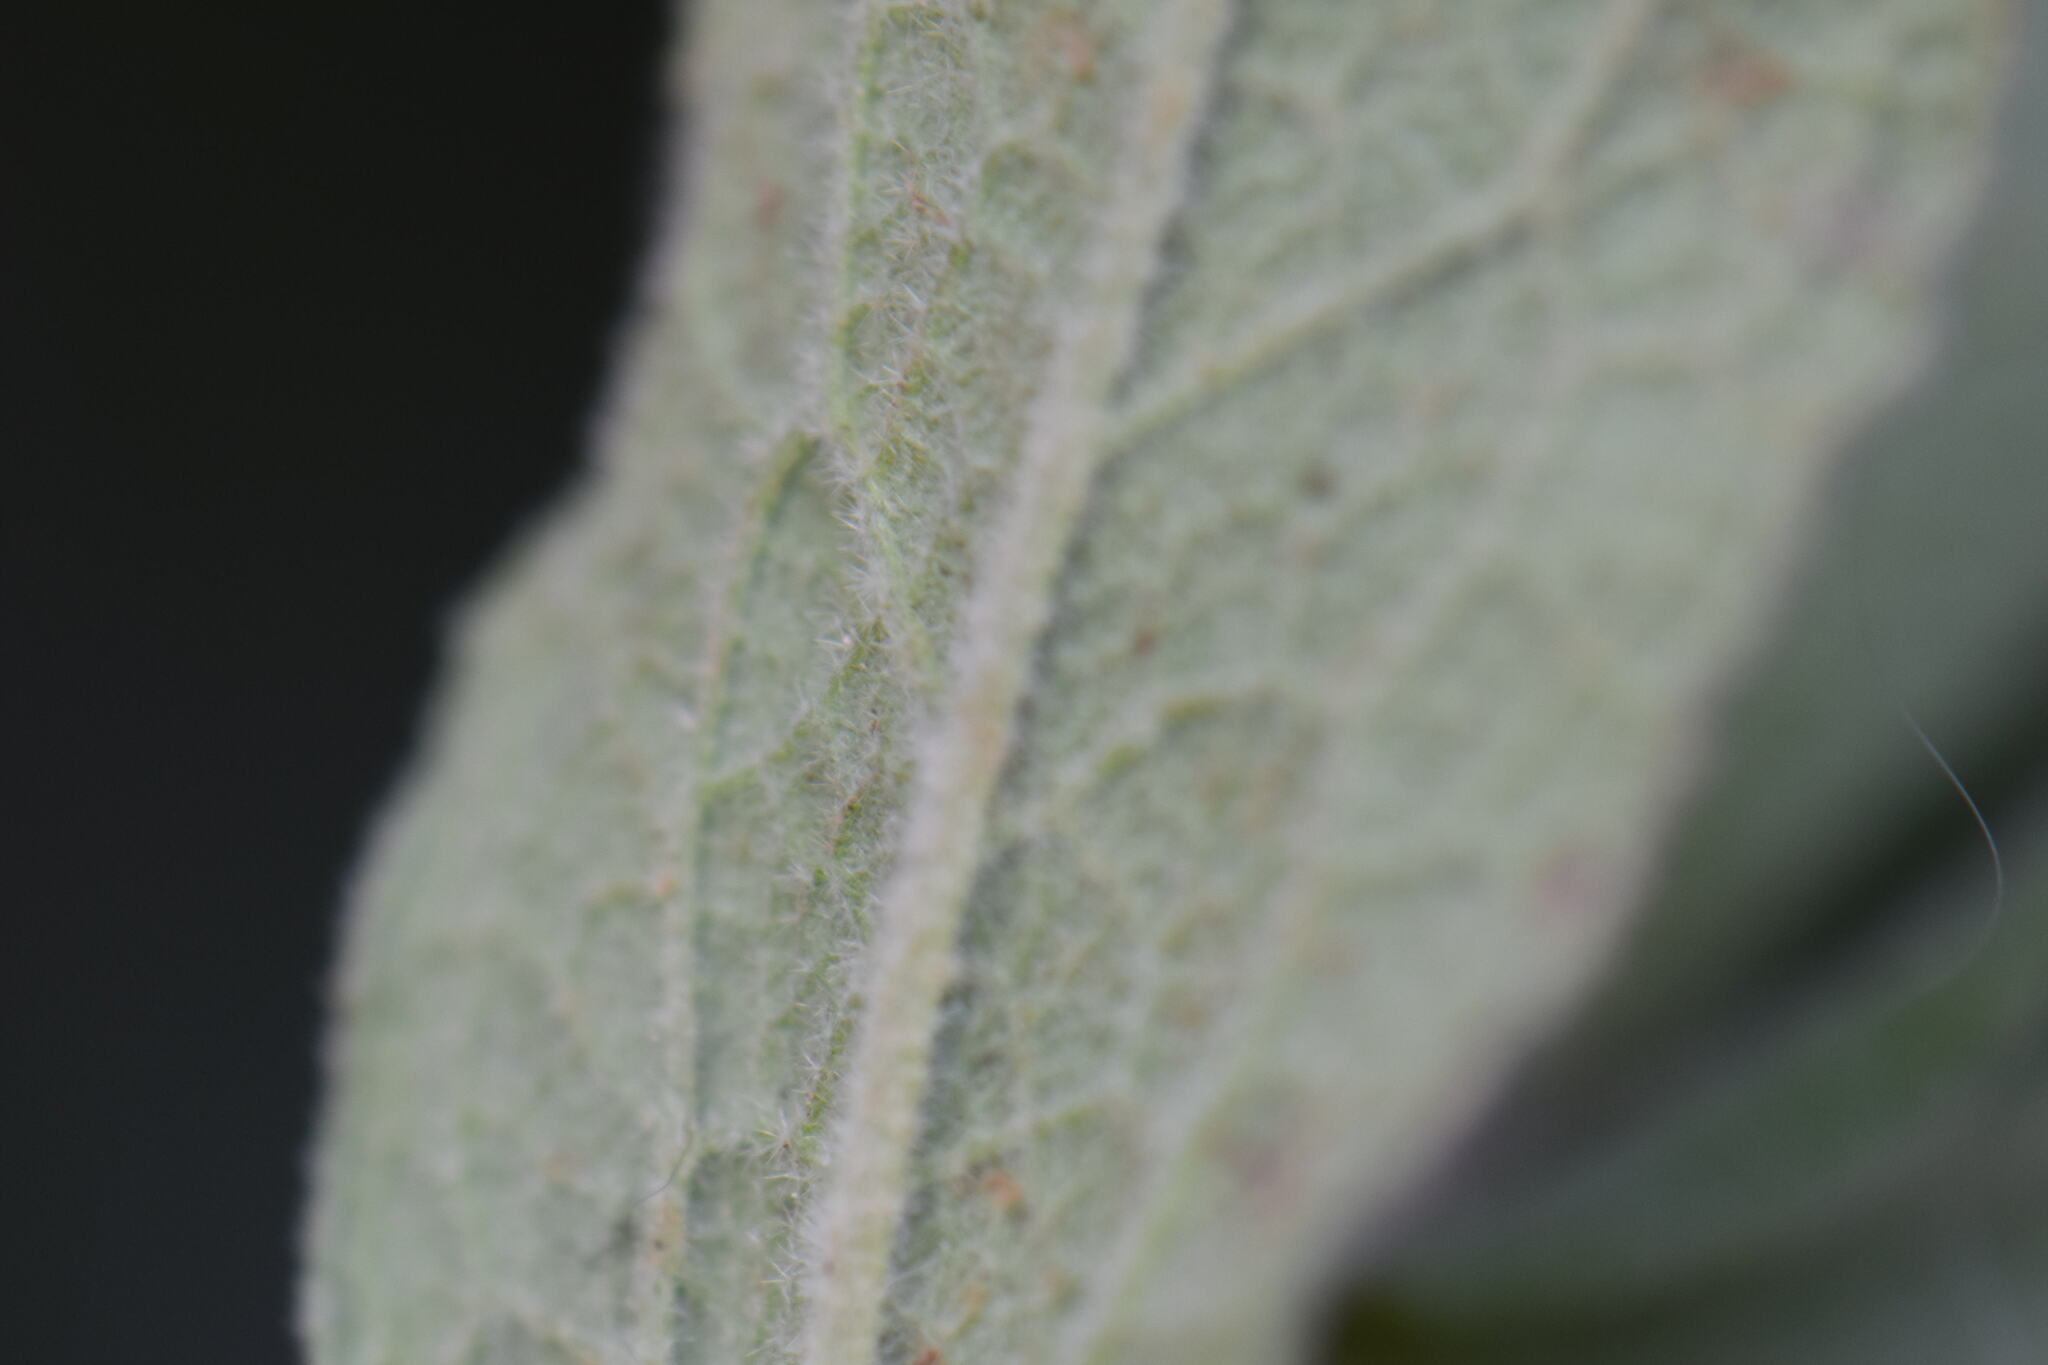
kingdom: Plantae
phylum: Tracheophyta
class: Magnoliopsida
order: Malvales
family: Cistaceae
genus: Cistus
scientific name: Cistus albidus
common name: White-leaf rock-rose
